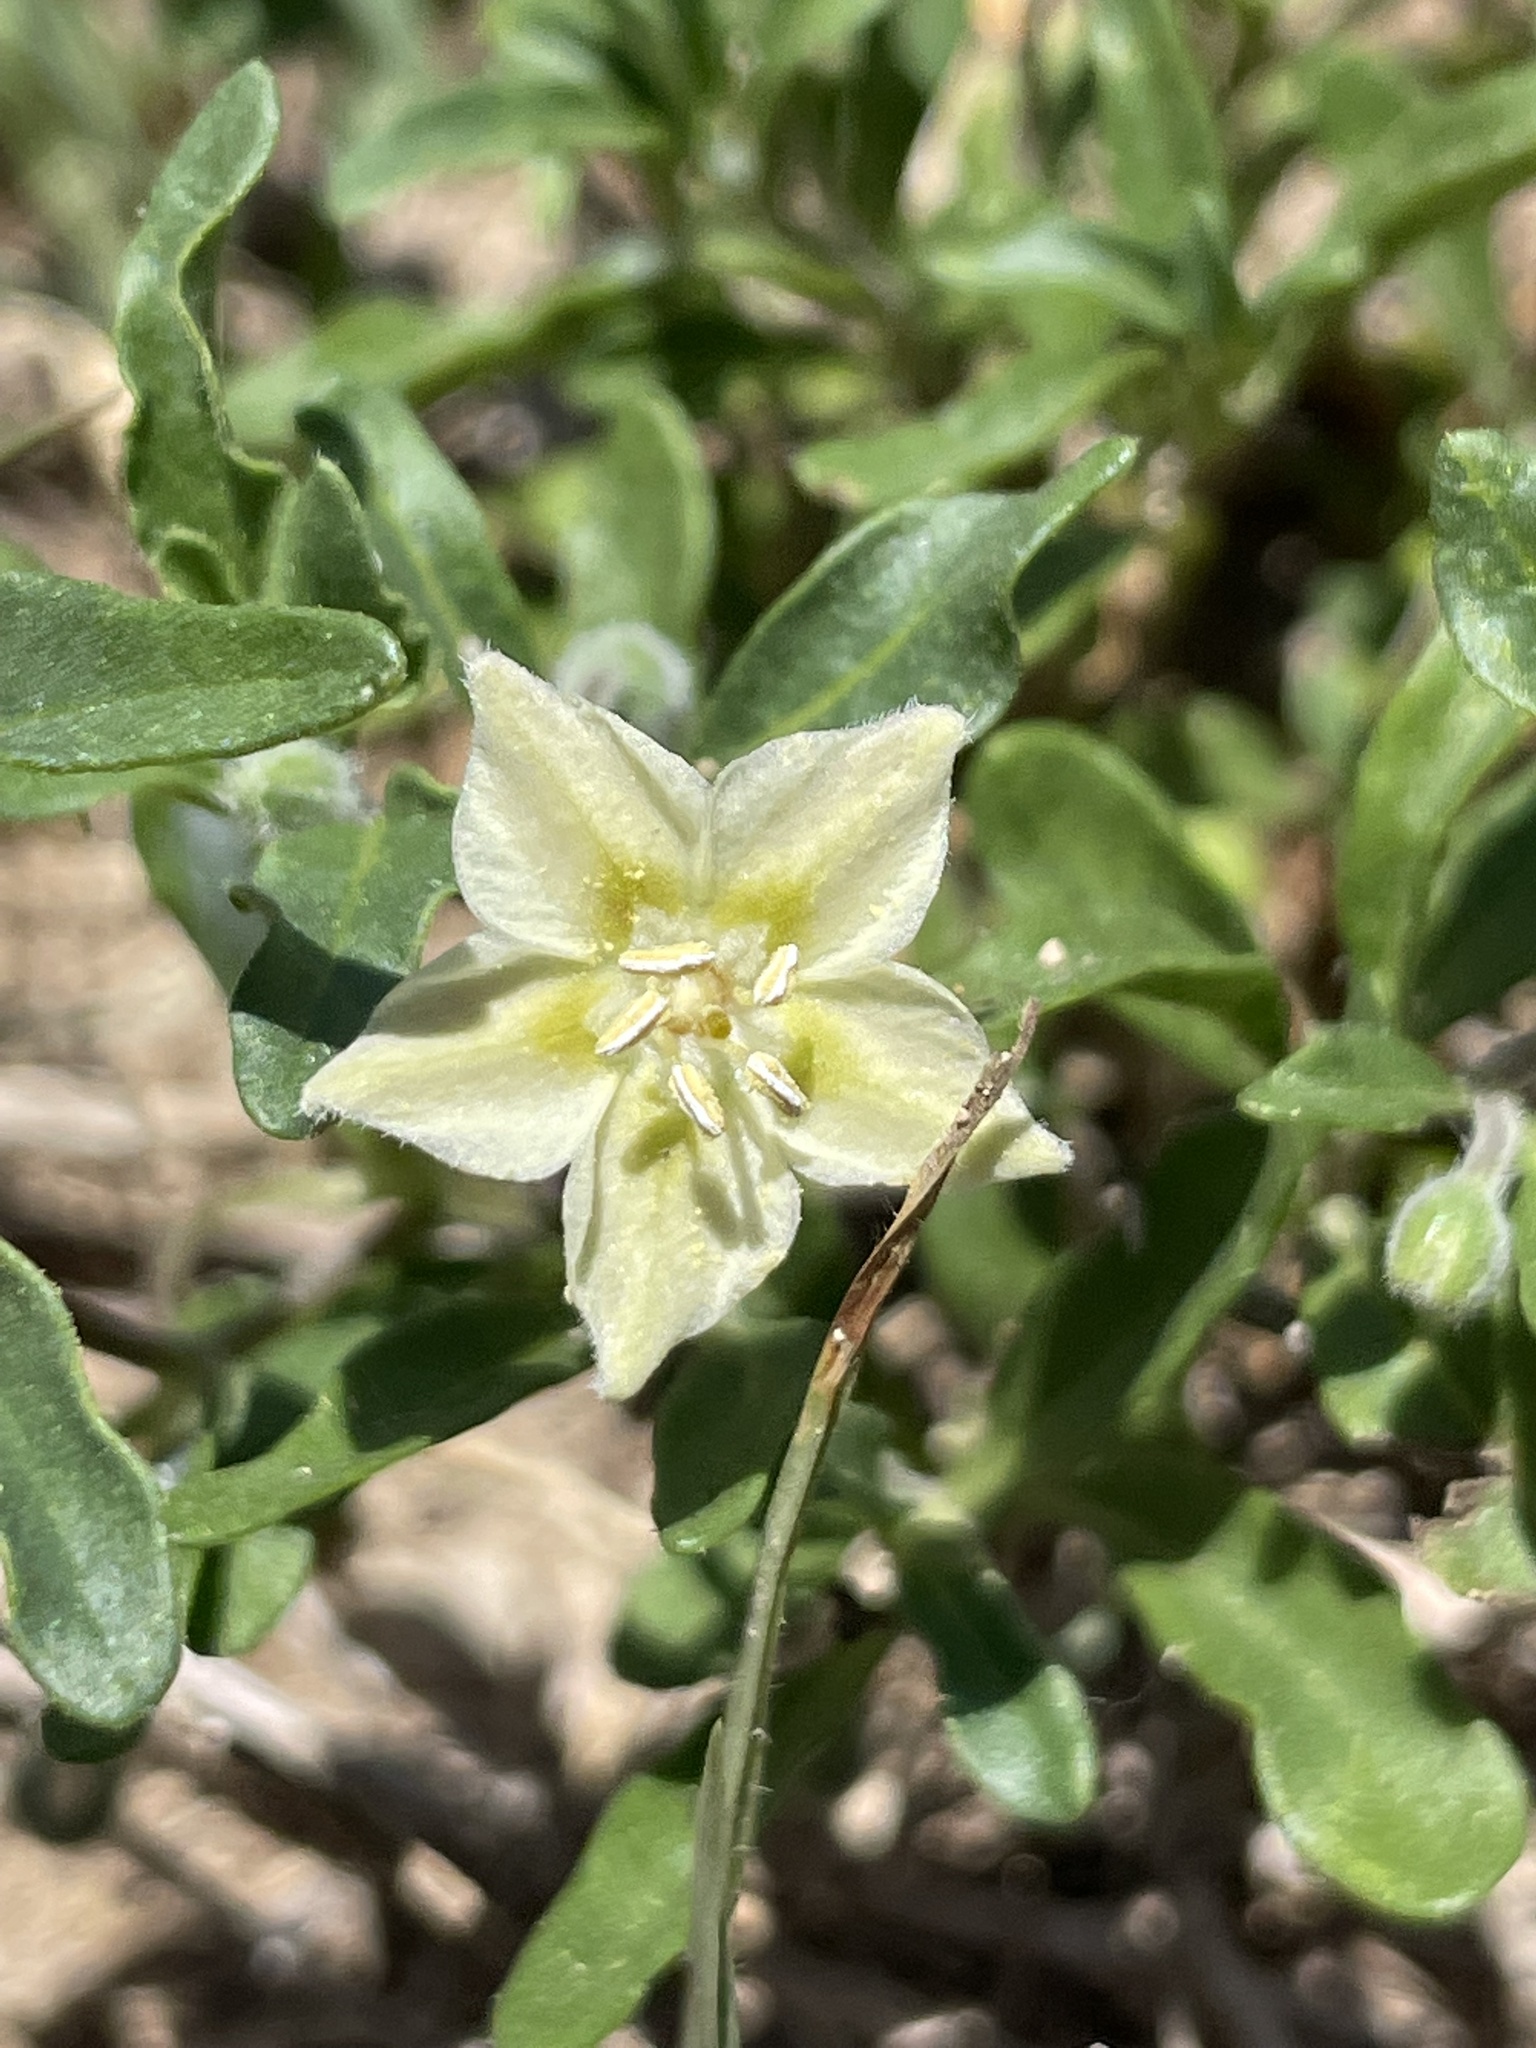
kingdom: Plantae
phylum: Tracheophyta
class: Magnoliopsida
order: Solanales
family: Solanaceae
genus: Chamaesaracha
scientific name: Chamaesaracha edwardsiana
